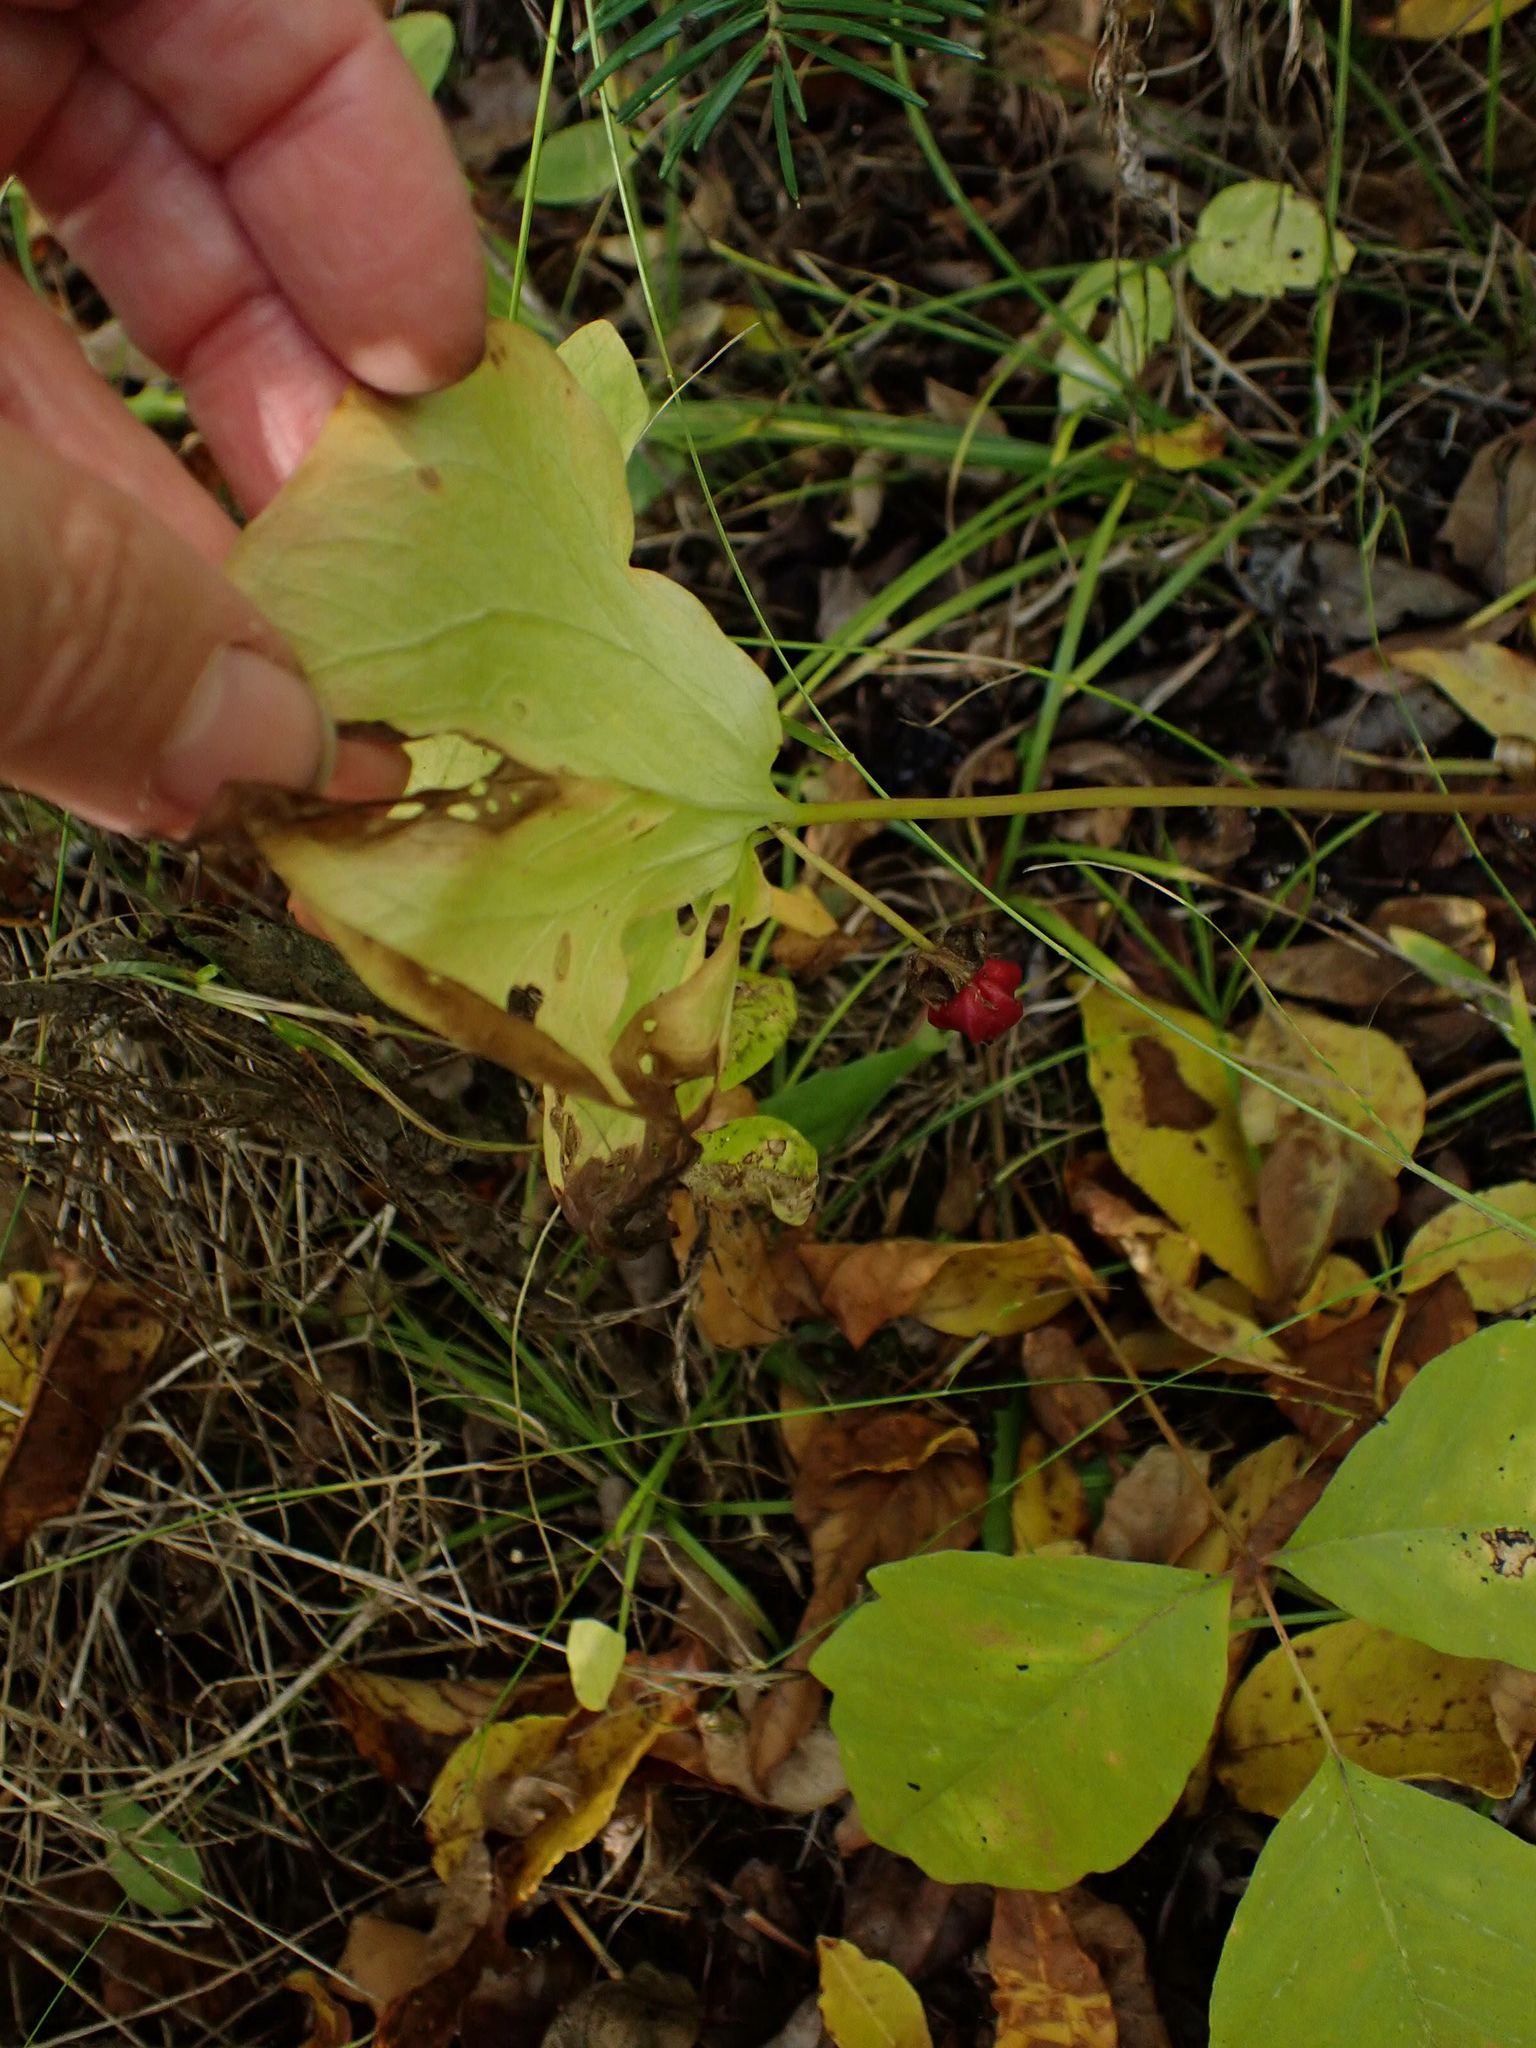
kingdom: Plantae
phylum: Tracheophyta
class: Liliopsida
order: Liliales
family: Melanthiaceae
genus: Trillium
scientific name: Trillium cernuum
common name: Nodding trillium
